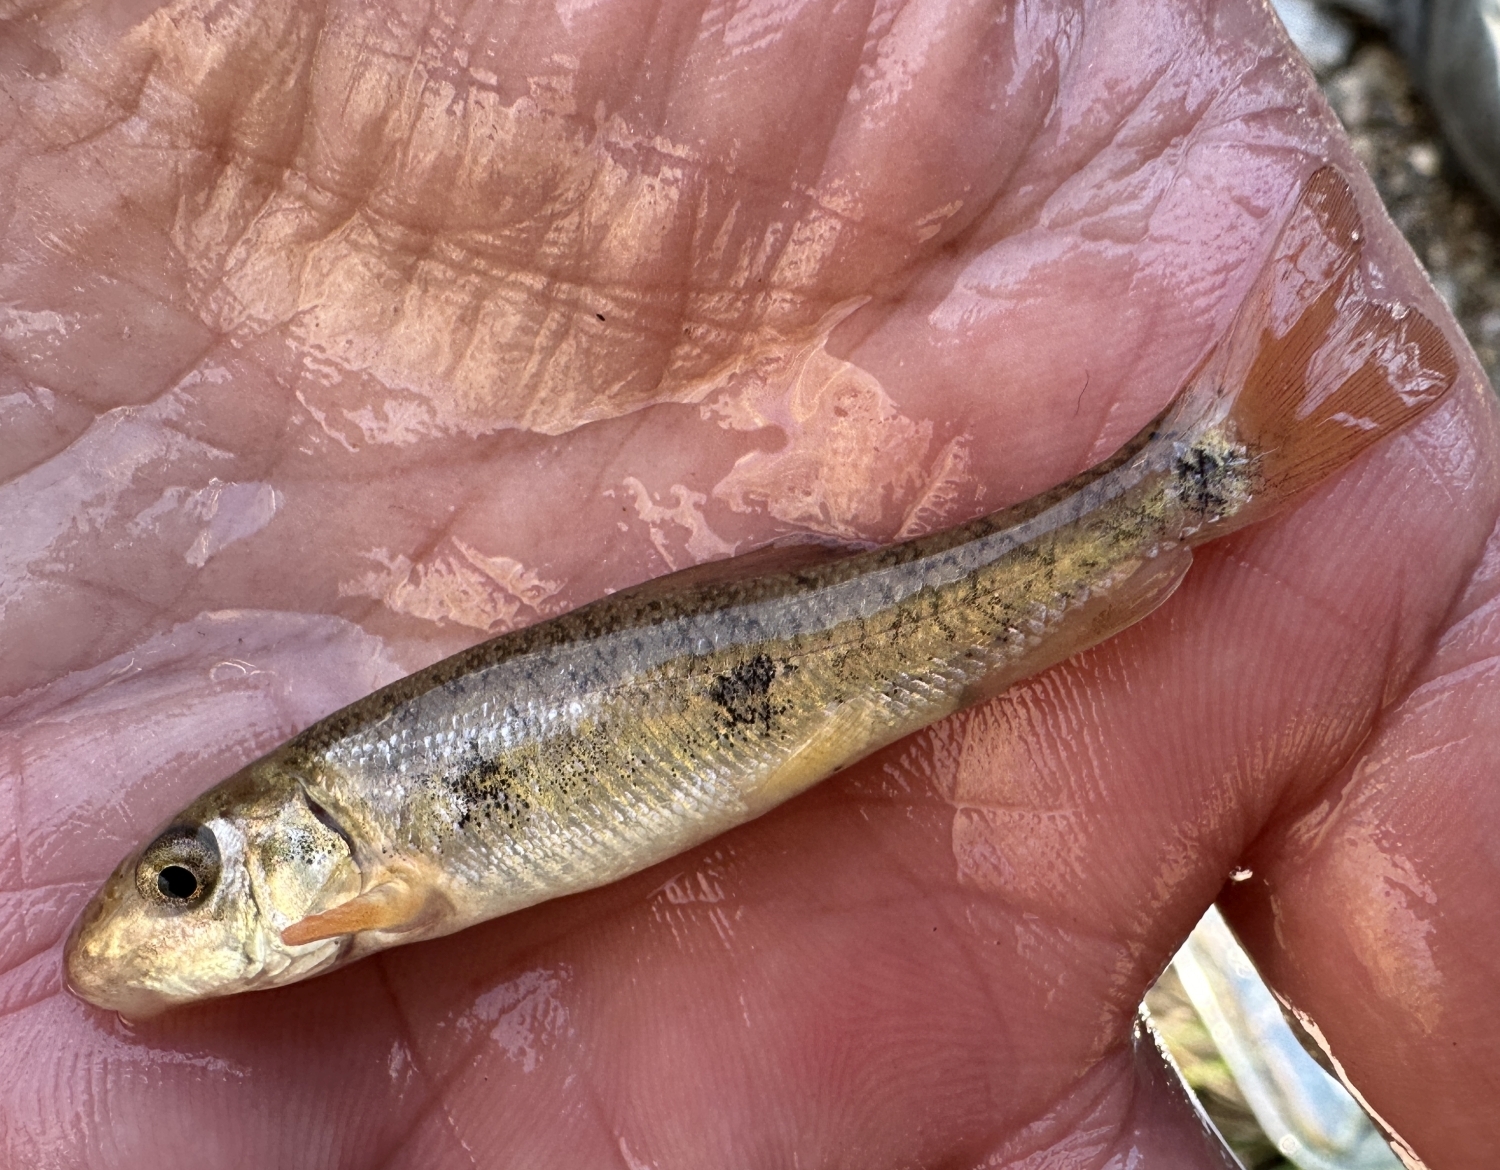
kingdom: Animalia
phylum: Chordata
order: Cypriniformes
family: Catostomidae
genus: Catostomus
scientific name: Catostomus commersonii
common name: White sucker
